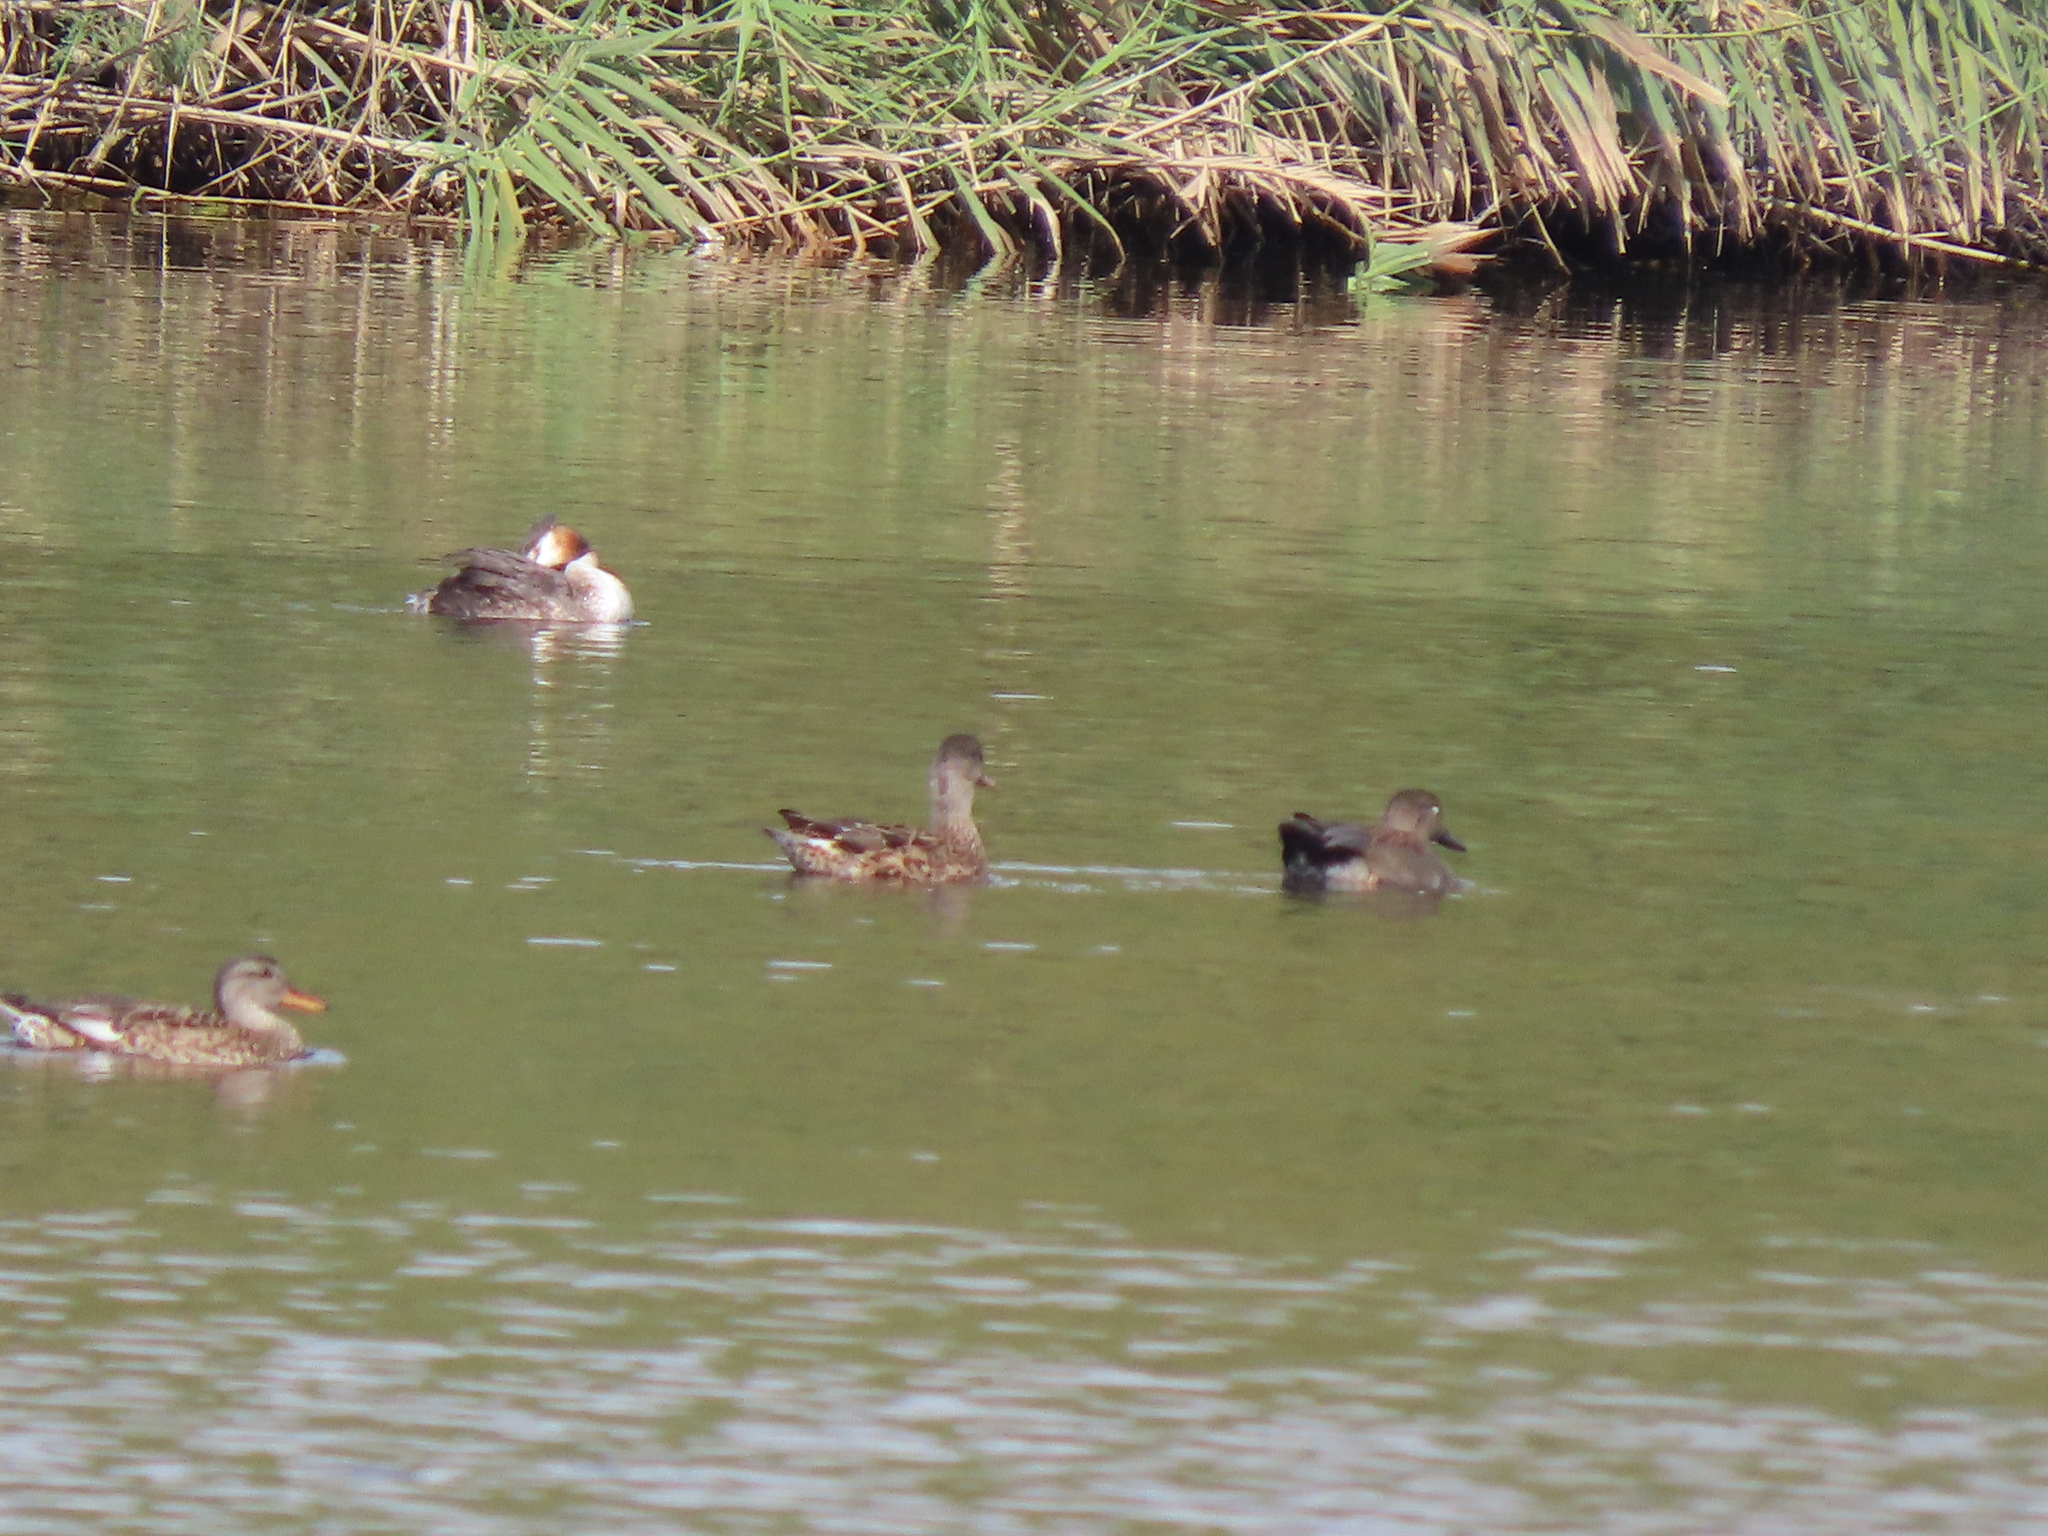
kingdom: Animalia
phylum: Chordata
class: Aves
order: Anseriformes
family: Anatidae
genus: Mareca
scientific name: Mareca strepera
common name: Gadwall
